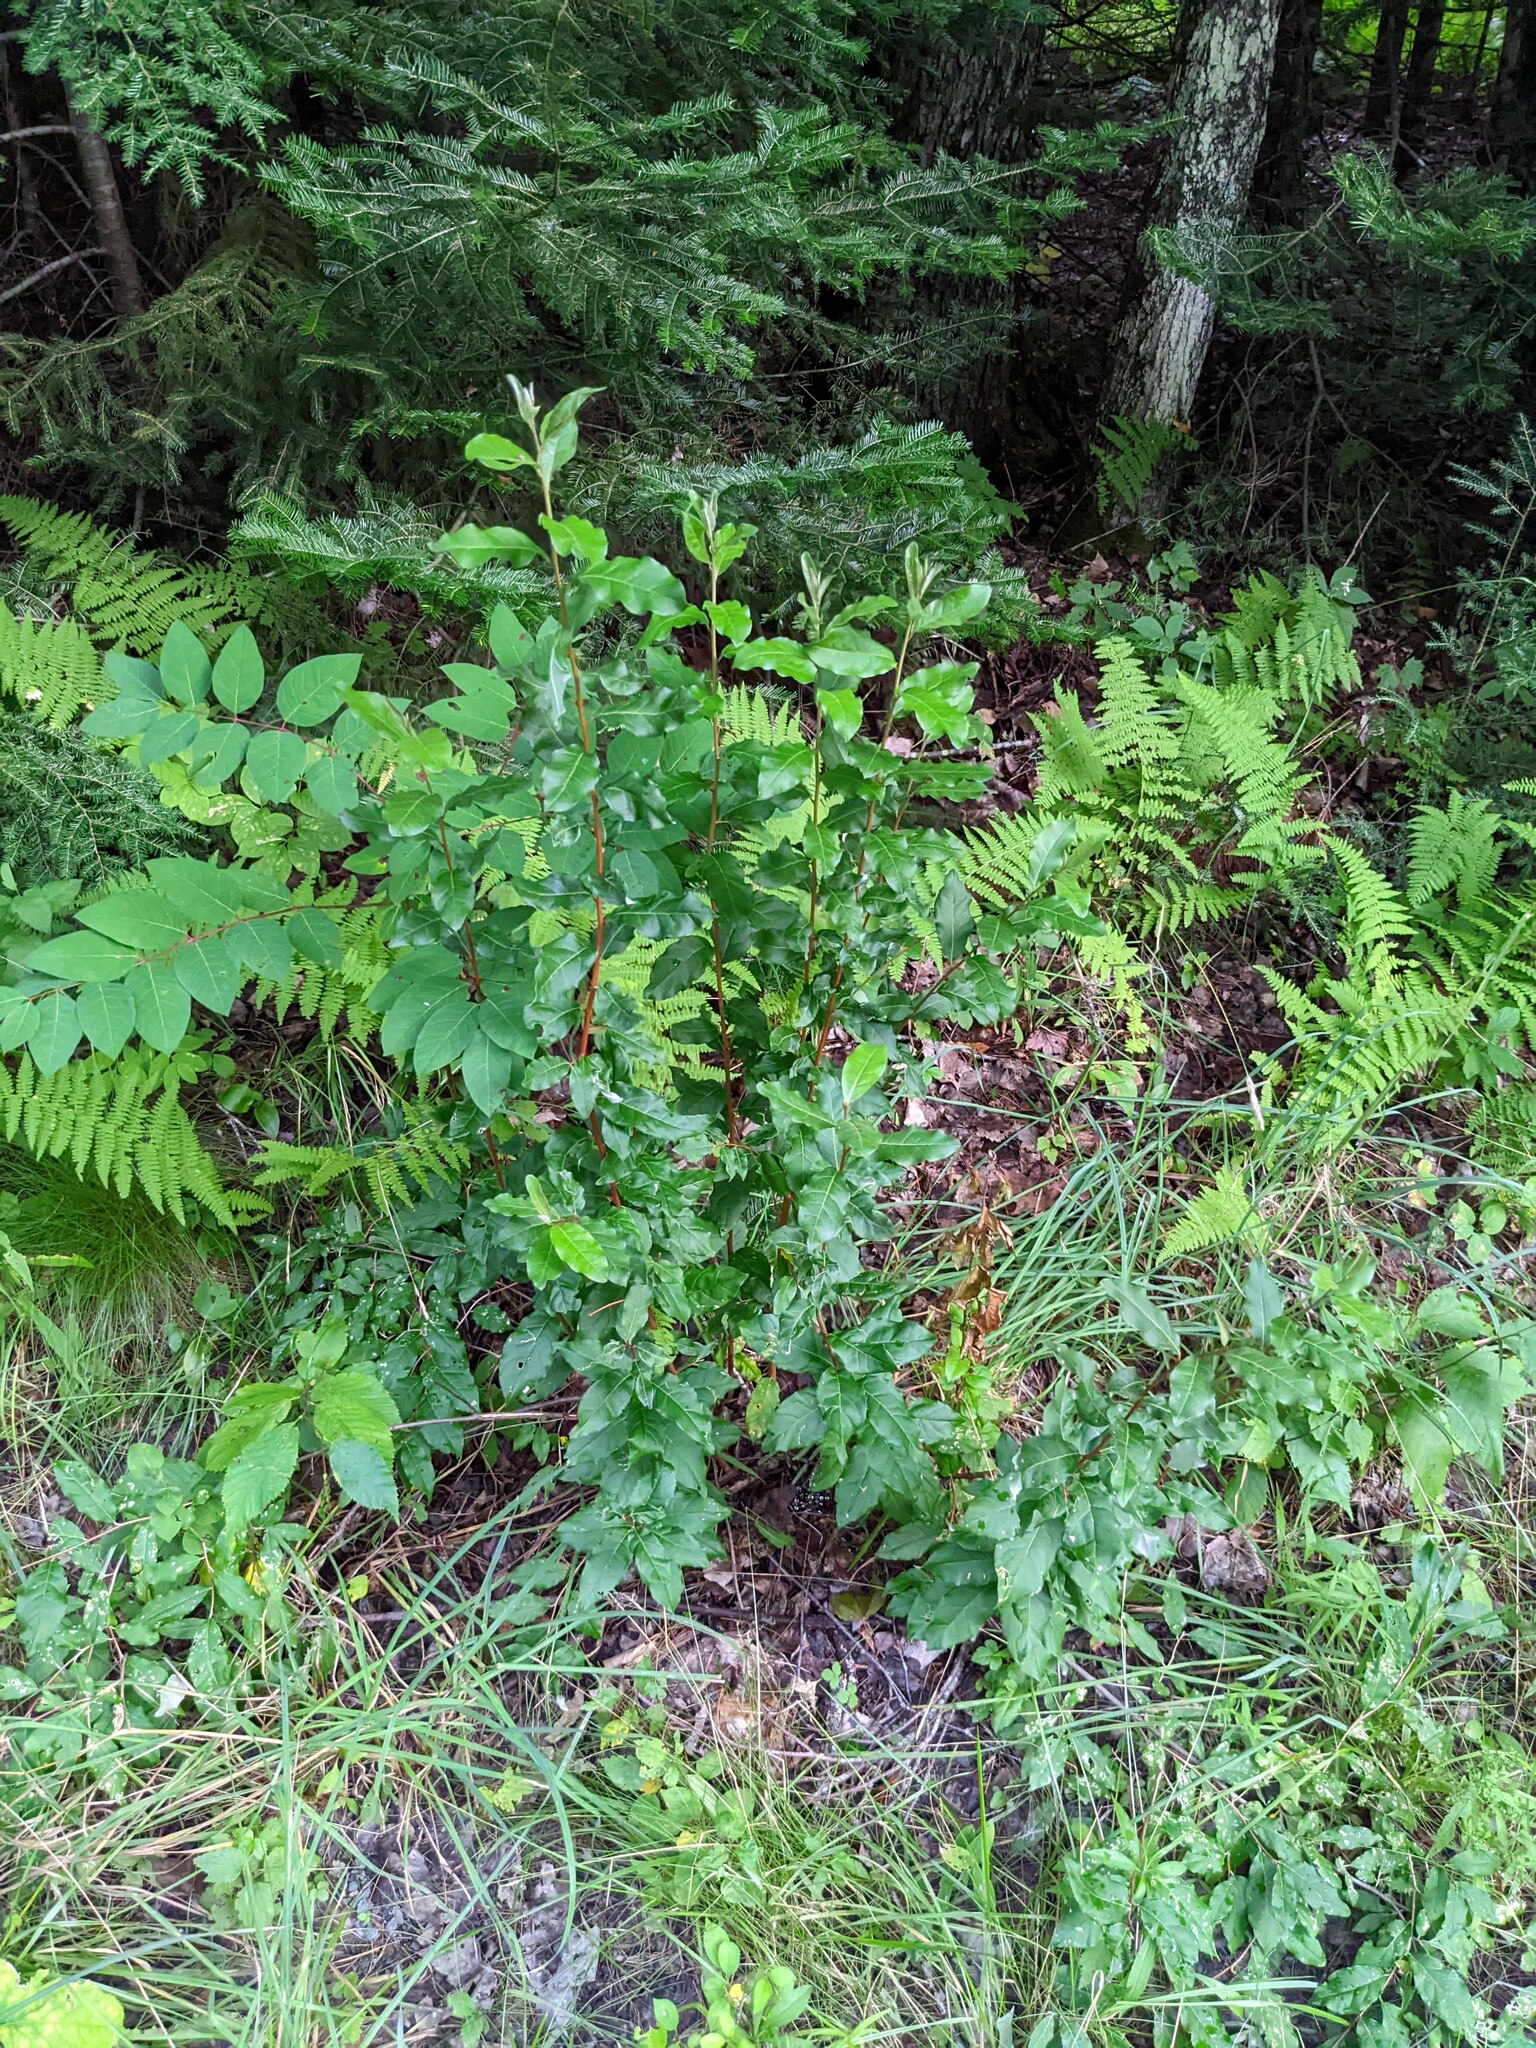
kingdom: Plantae
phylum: Tracheophyta
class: Magnoliopsida
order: Rosales
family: Elaeagnaceae
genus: Elaeagnus
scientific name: Elaeagnus umbellata
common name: Autumn olive
